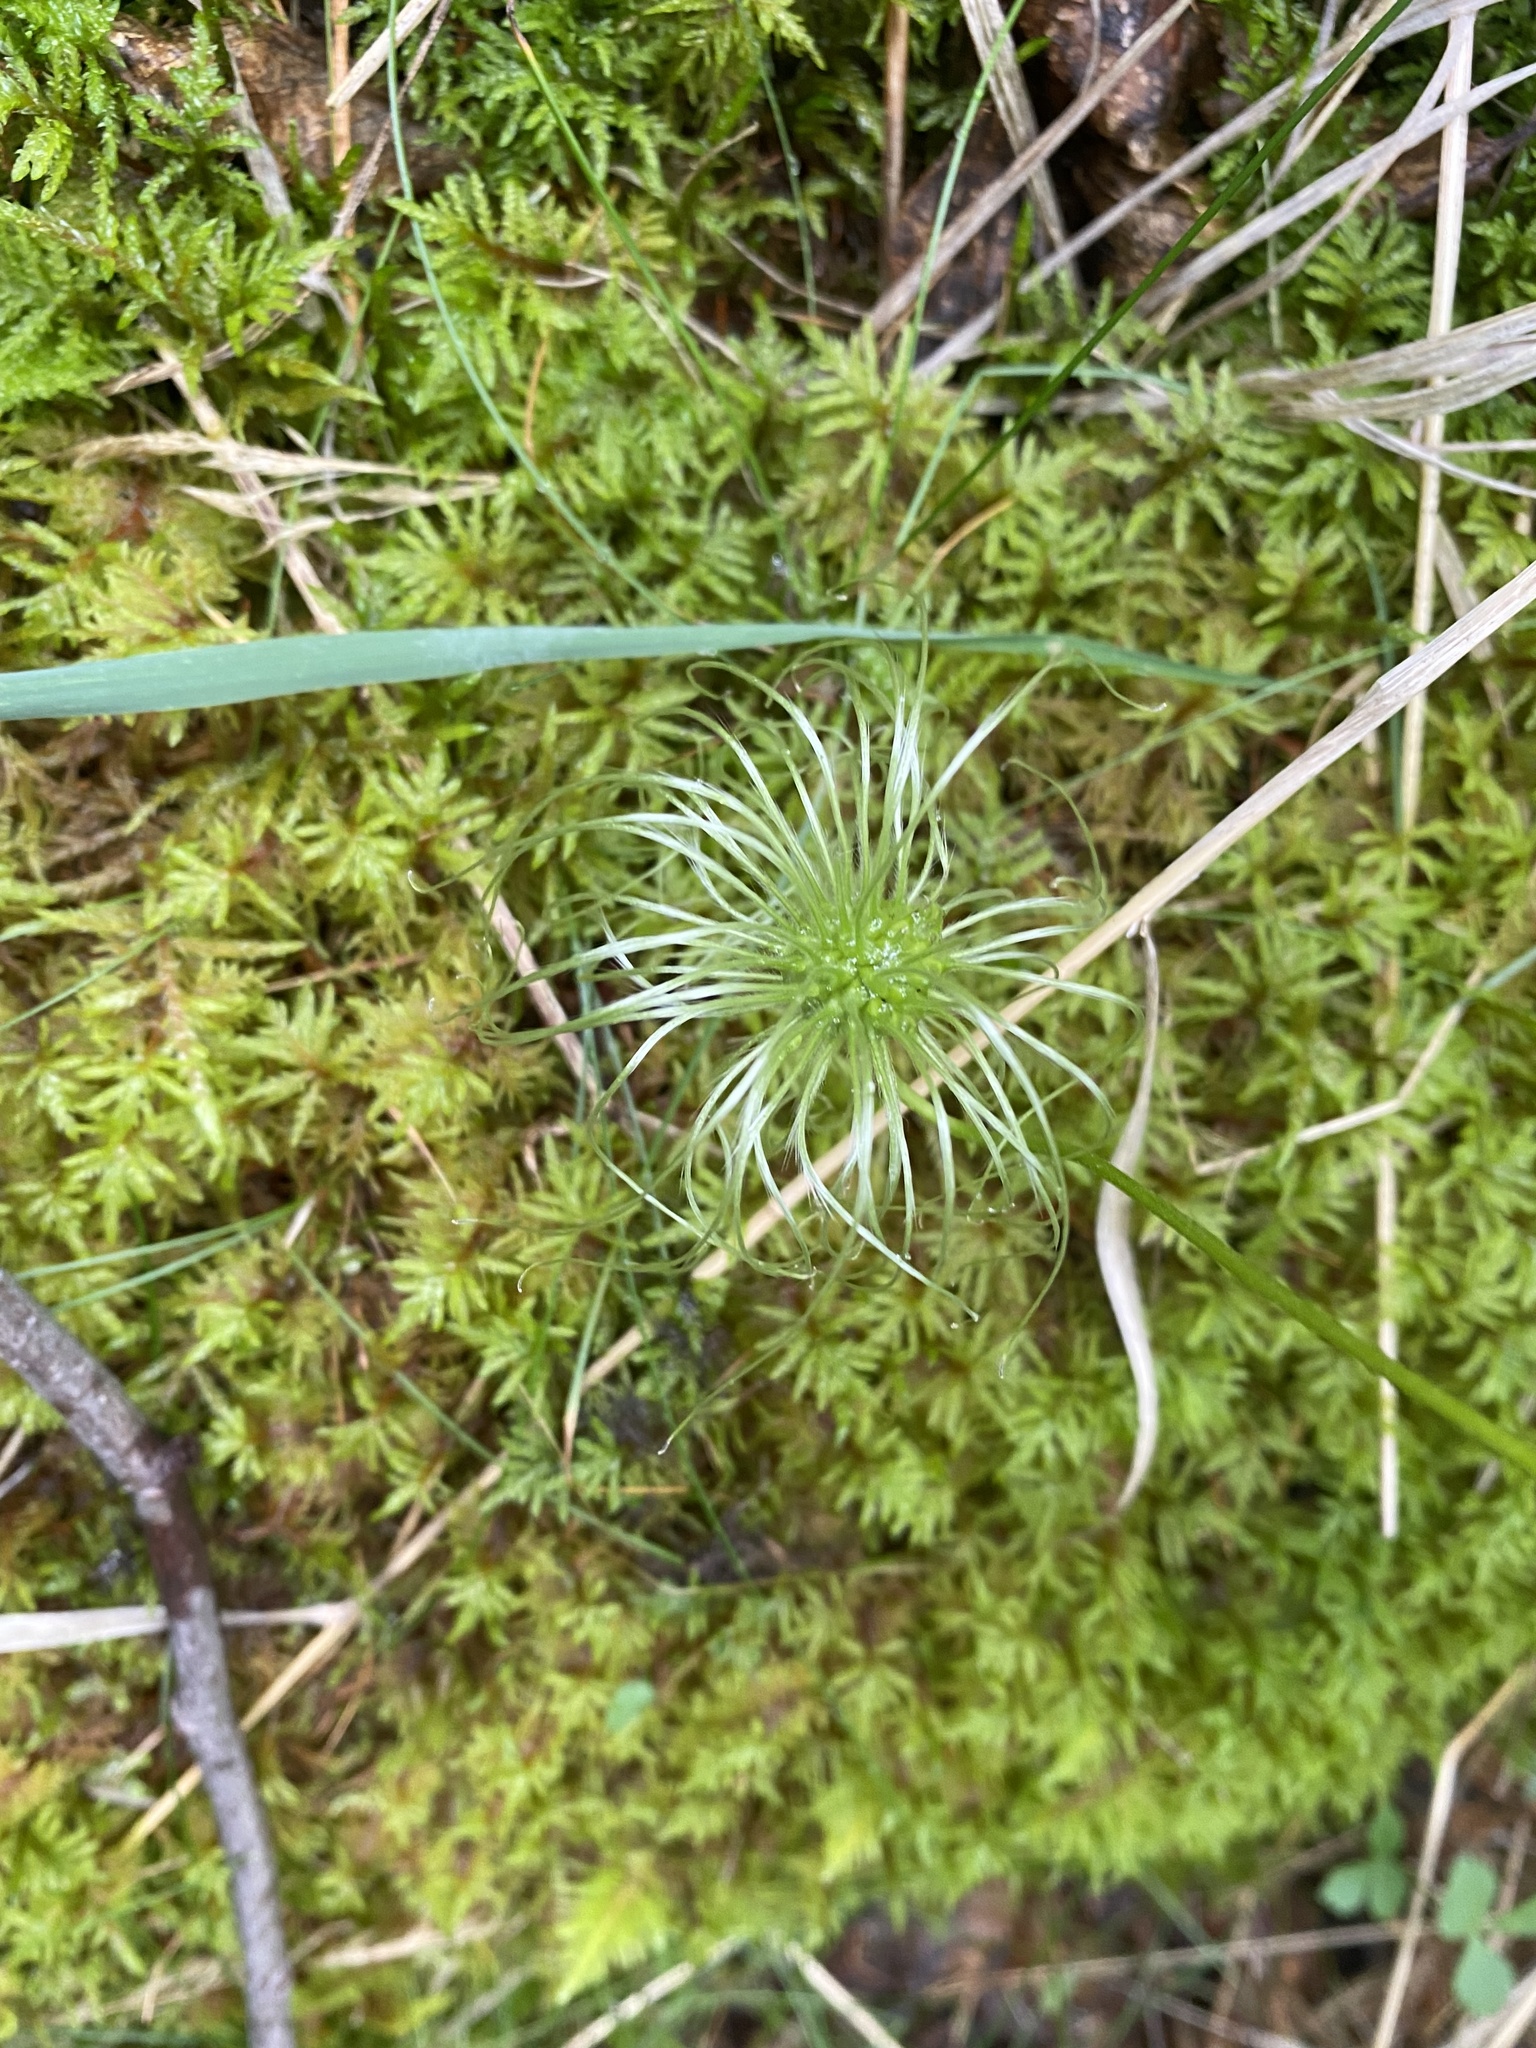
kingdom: Plantae
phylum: Tracheophyta
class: Magnoliopsida
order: Ranunculales
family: Ranunculaceae
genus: Clematis
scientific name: Clematis sibirica
